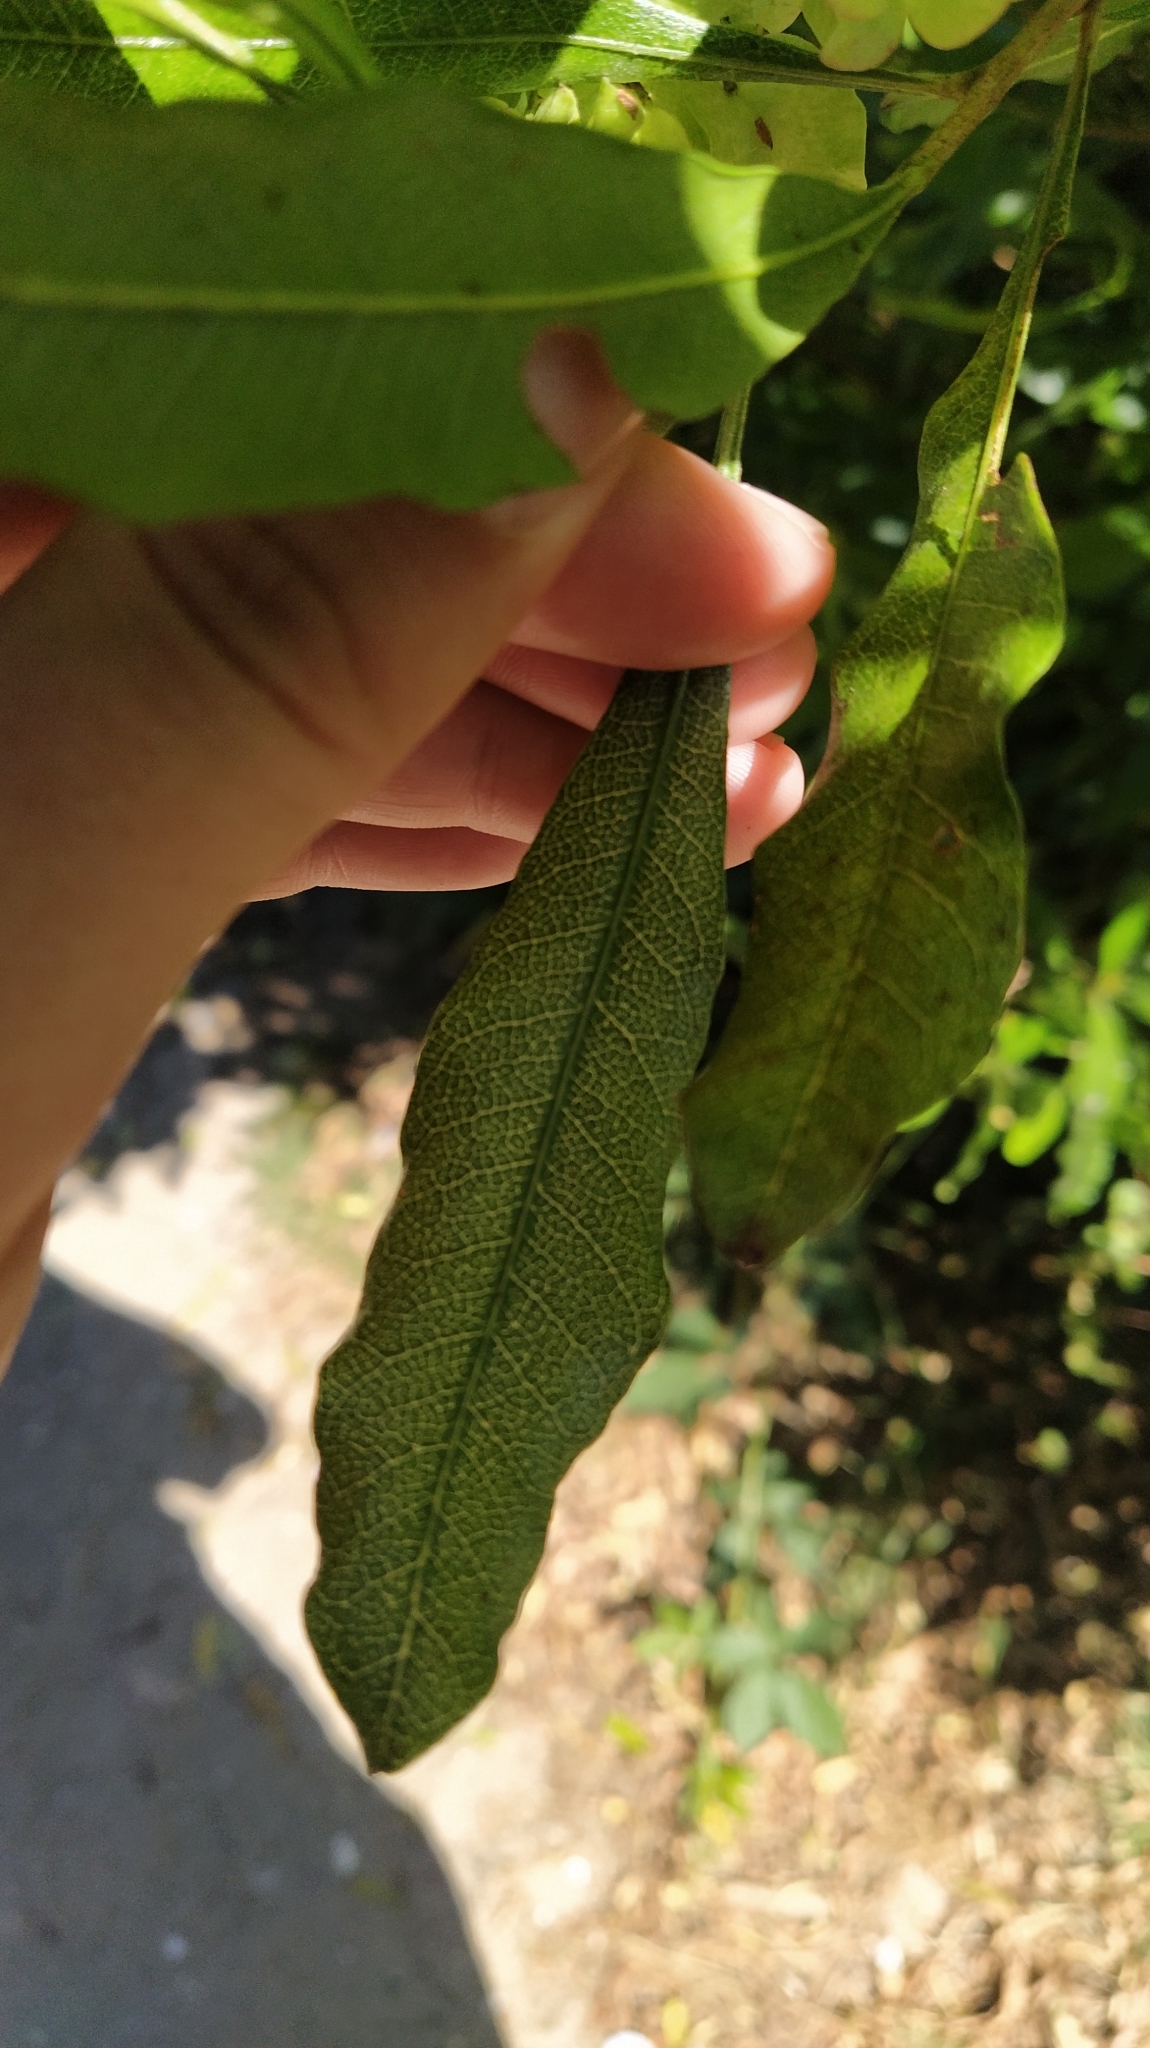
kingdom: Plantae
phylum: Tracheophyta
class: Magnoliopsida
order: Sapindales
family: Sapindaceae
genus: Dodonaea
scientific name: Dodonaea viscosa
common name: Hopbush
